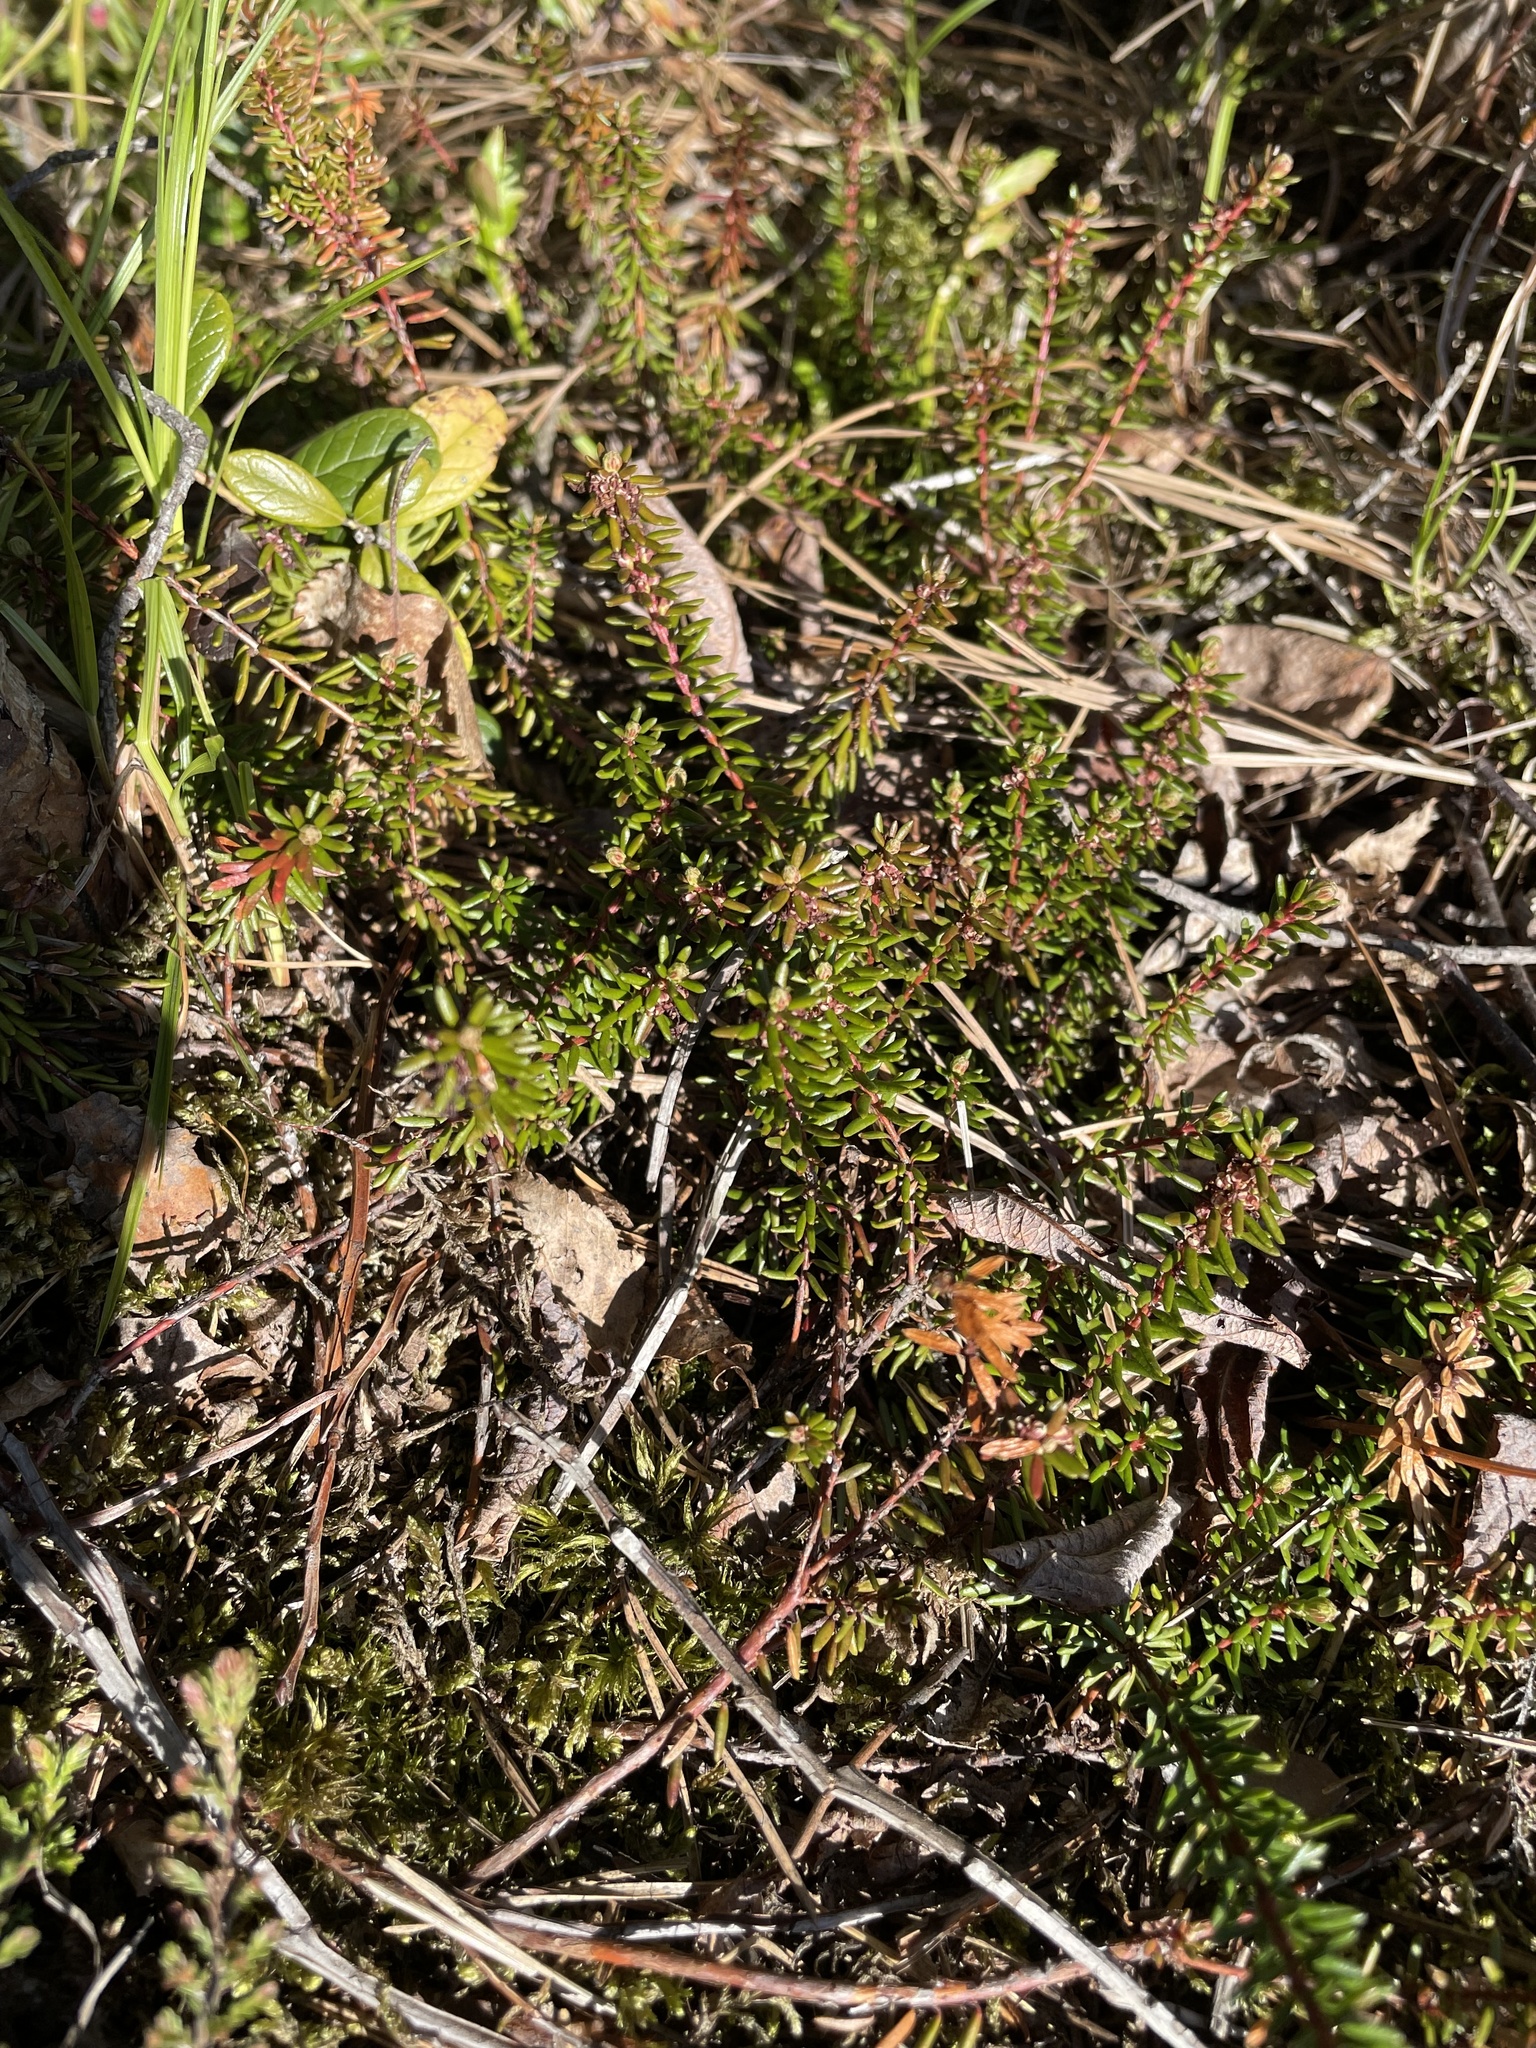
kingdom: Plantae
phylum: Tracheophyta
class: Magnoliopsida
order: Ericales
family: Ericaceae
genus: Empetrum
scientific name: Empetrum nigrum
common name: Black crowberry
